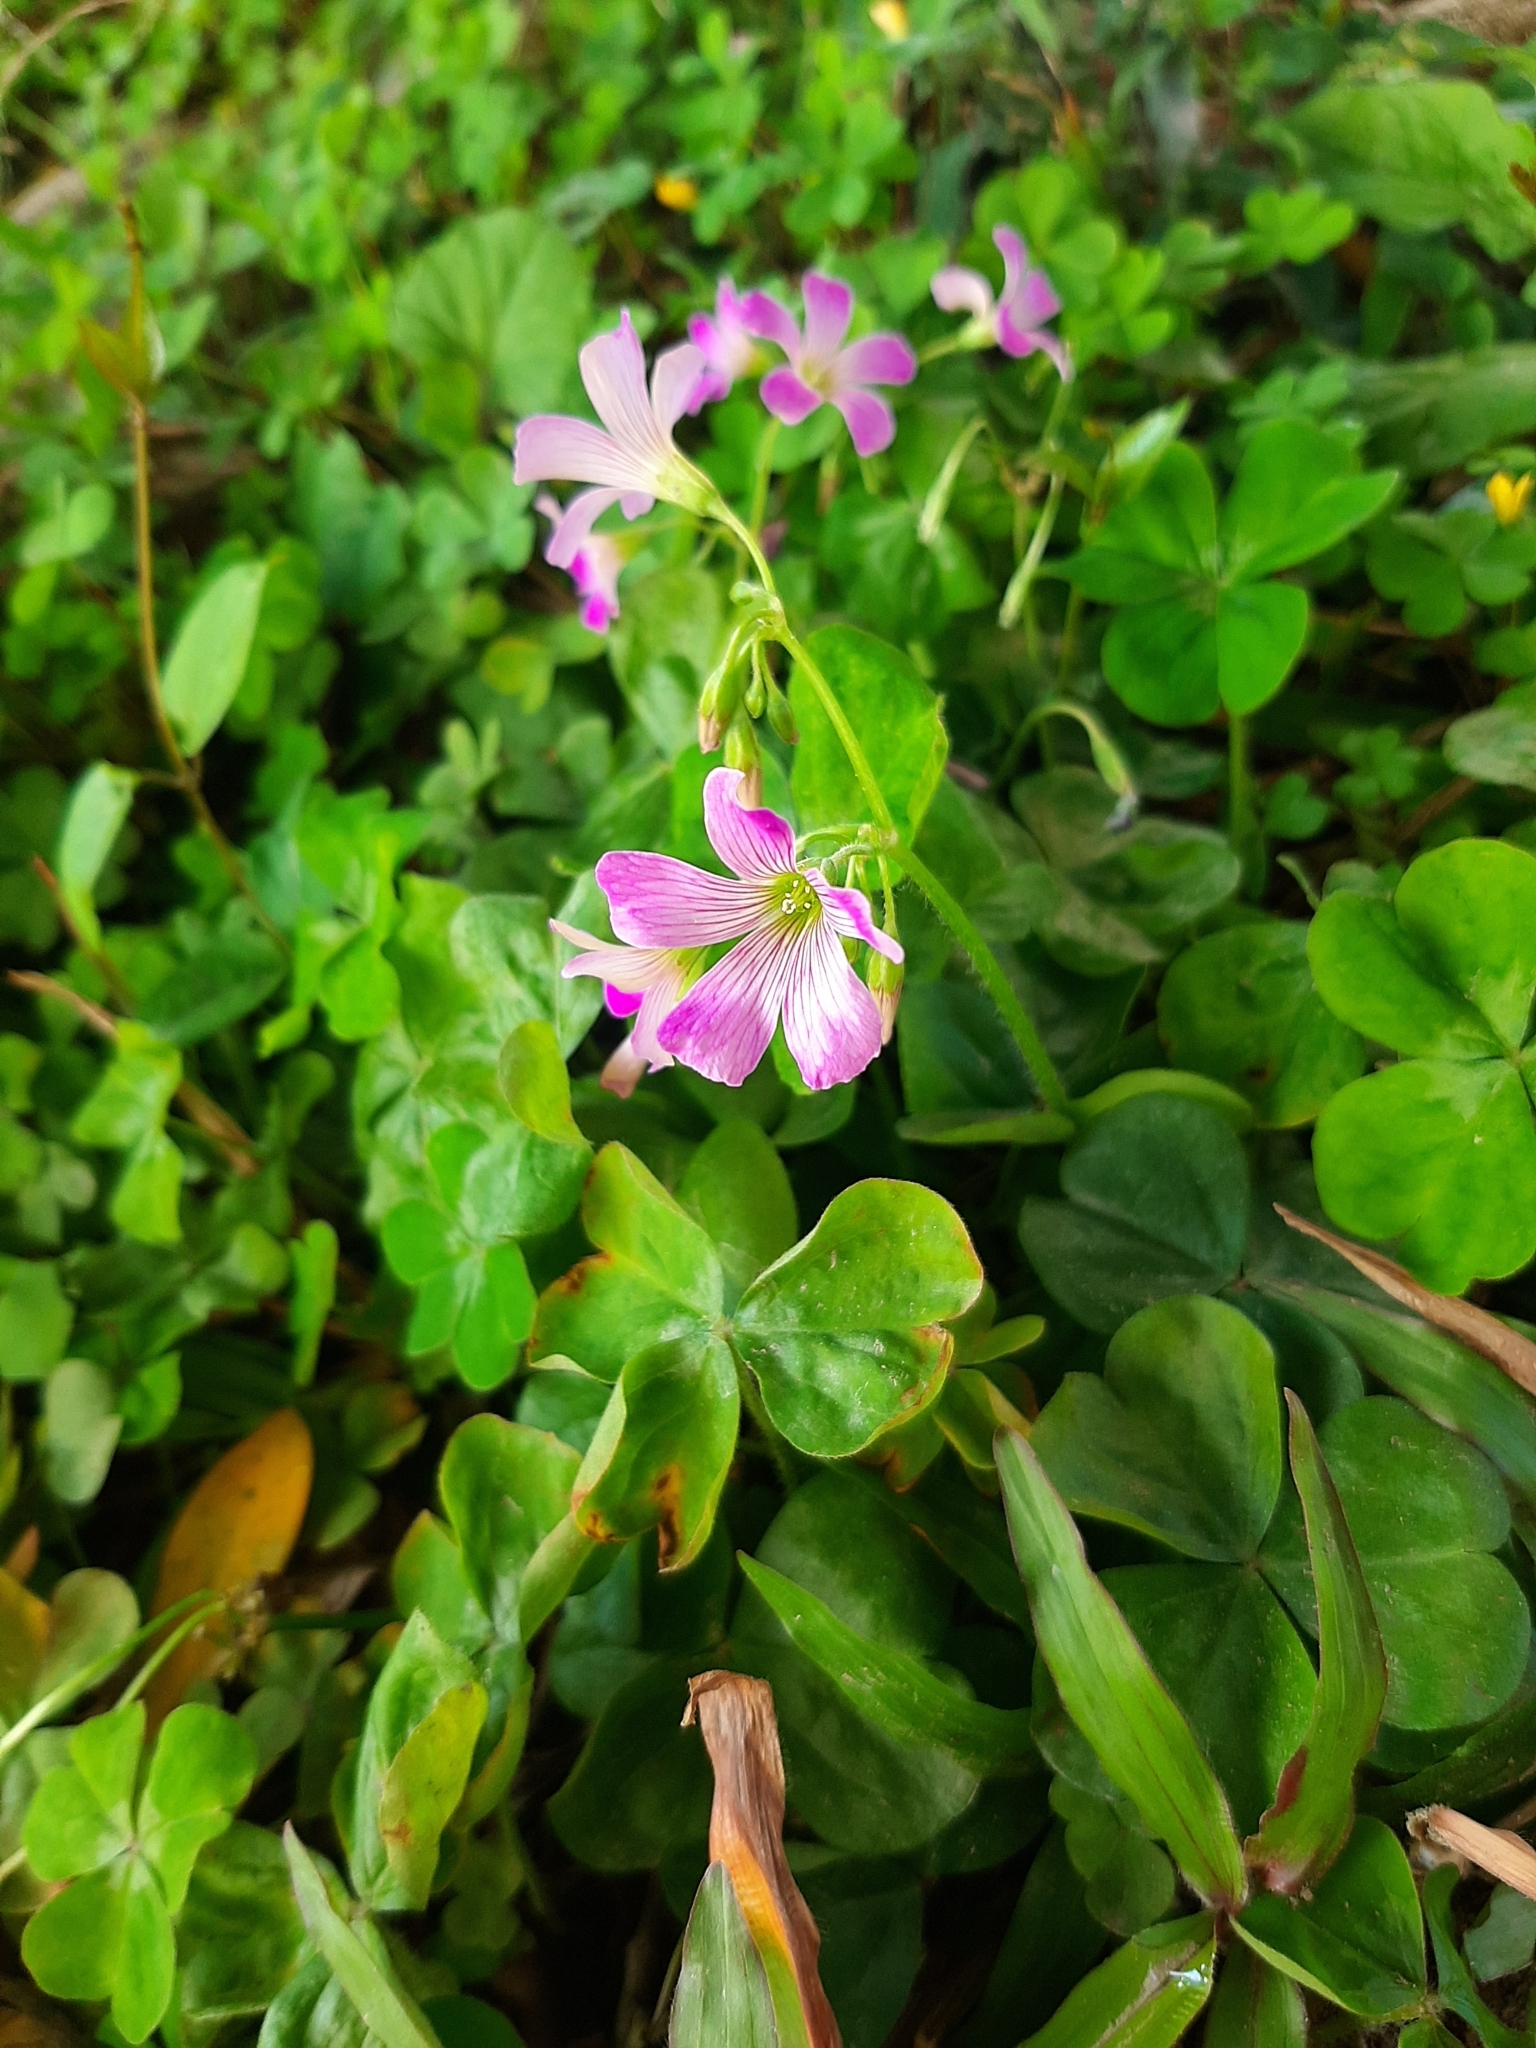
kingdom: Plantae
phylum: Tracheophyta
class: Magnoliopsida
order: Oxalidales
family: Oxalidaceae
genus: Oxalis
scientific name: Oxalis debilis
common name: Large-flowered pink-sorrel
